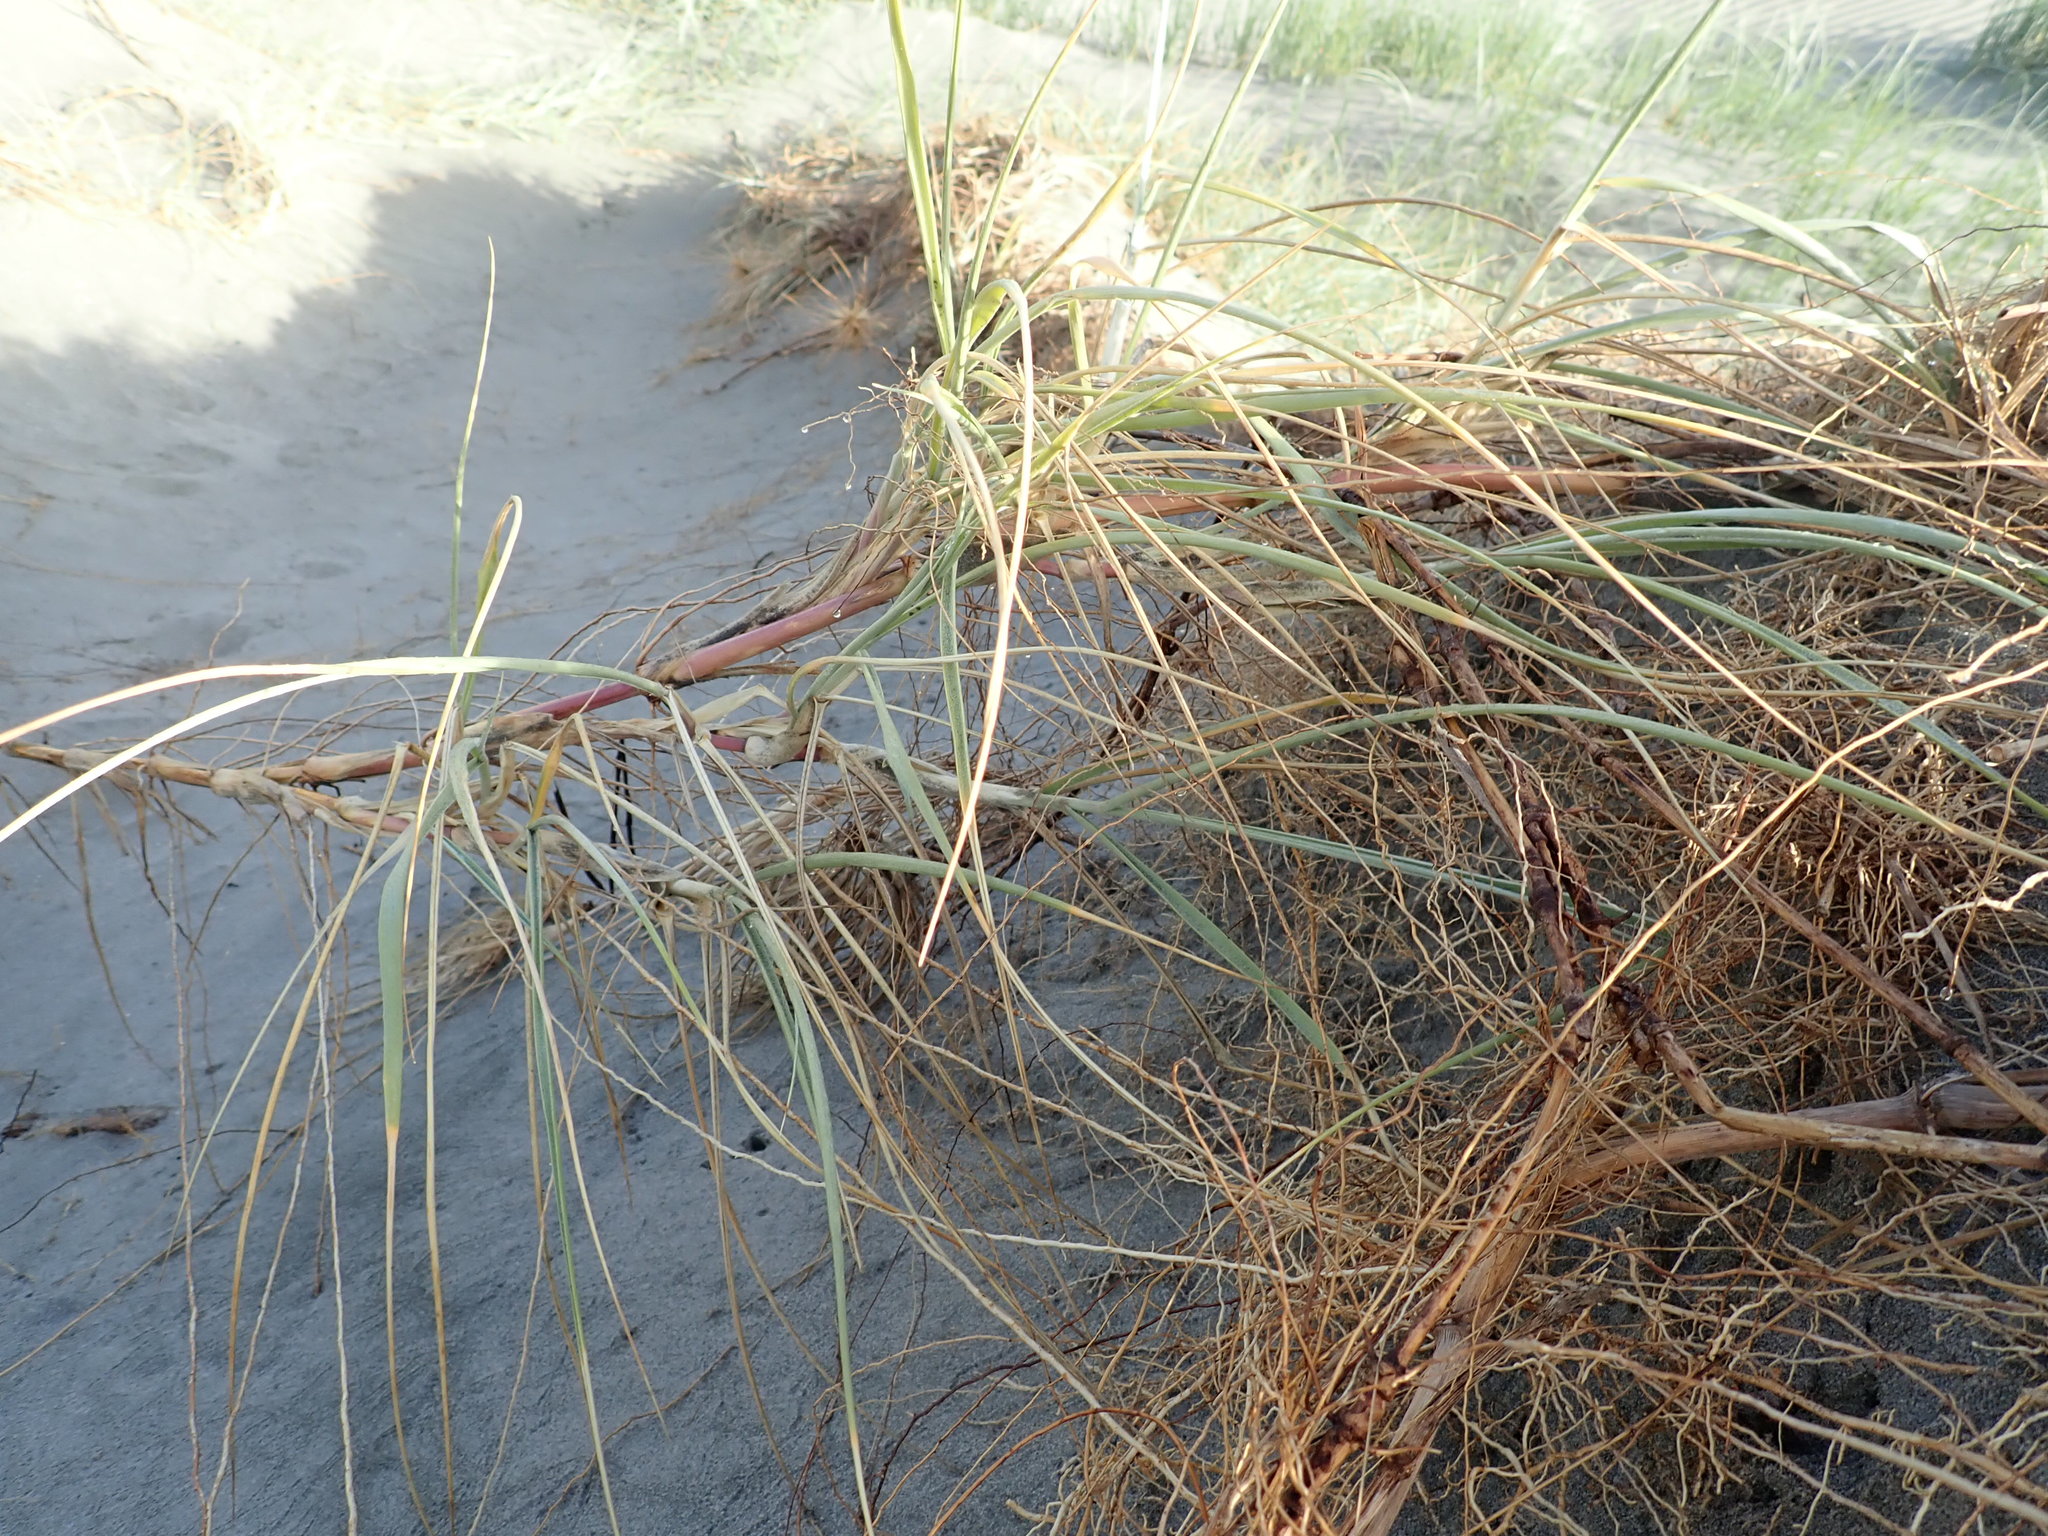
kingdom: Plantae
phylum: Tracheophyta
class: Liliopsida
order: Poales
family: Poaceae
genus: Spinifex
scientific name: Spinifex sericeus
